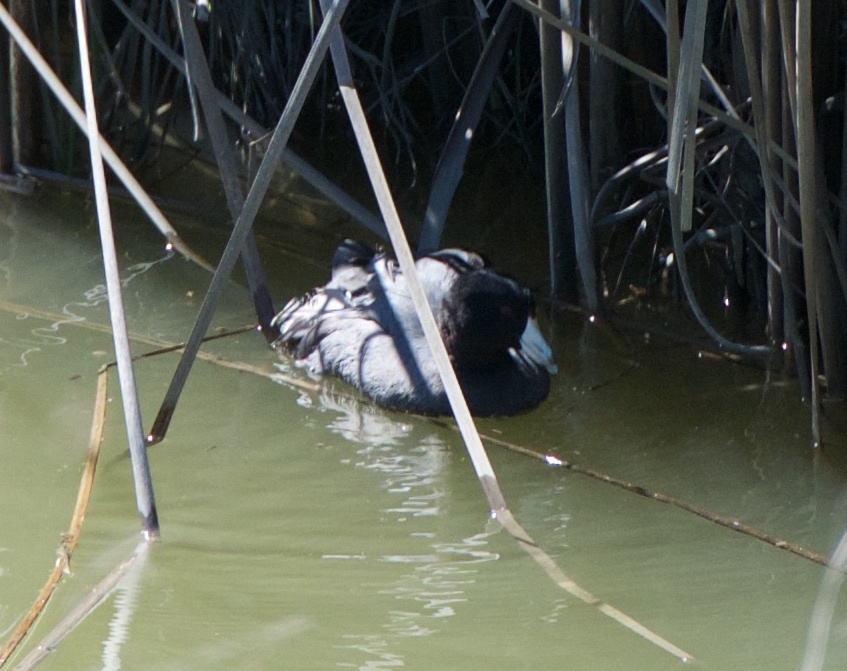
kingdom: Animalia
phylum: Chordata
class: Aves
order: Gruiformes
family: Rallidae
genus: Fulica
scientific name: Fulica americana
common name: American coot
